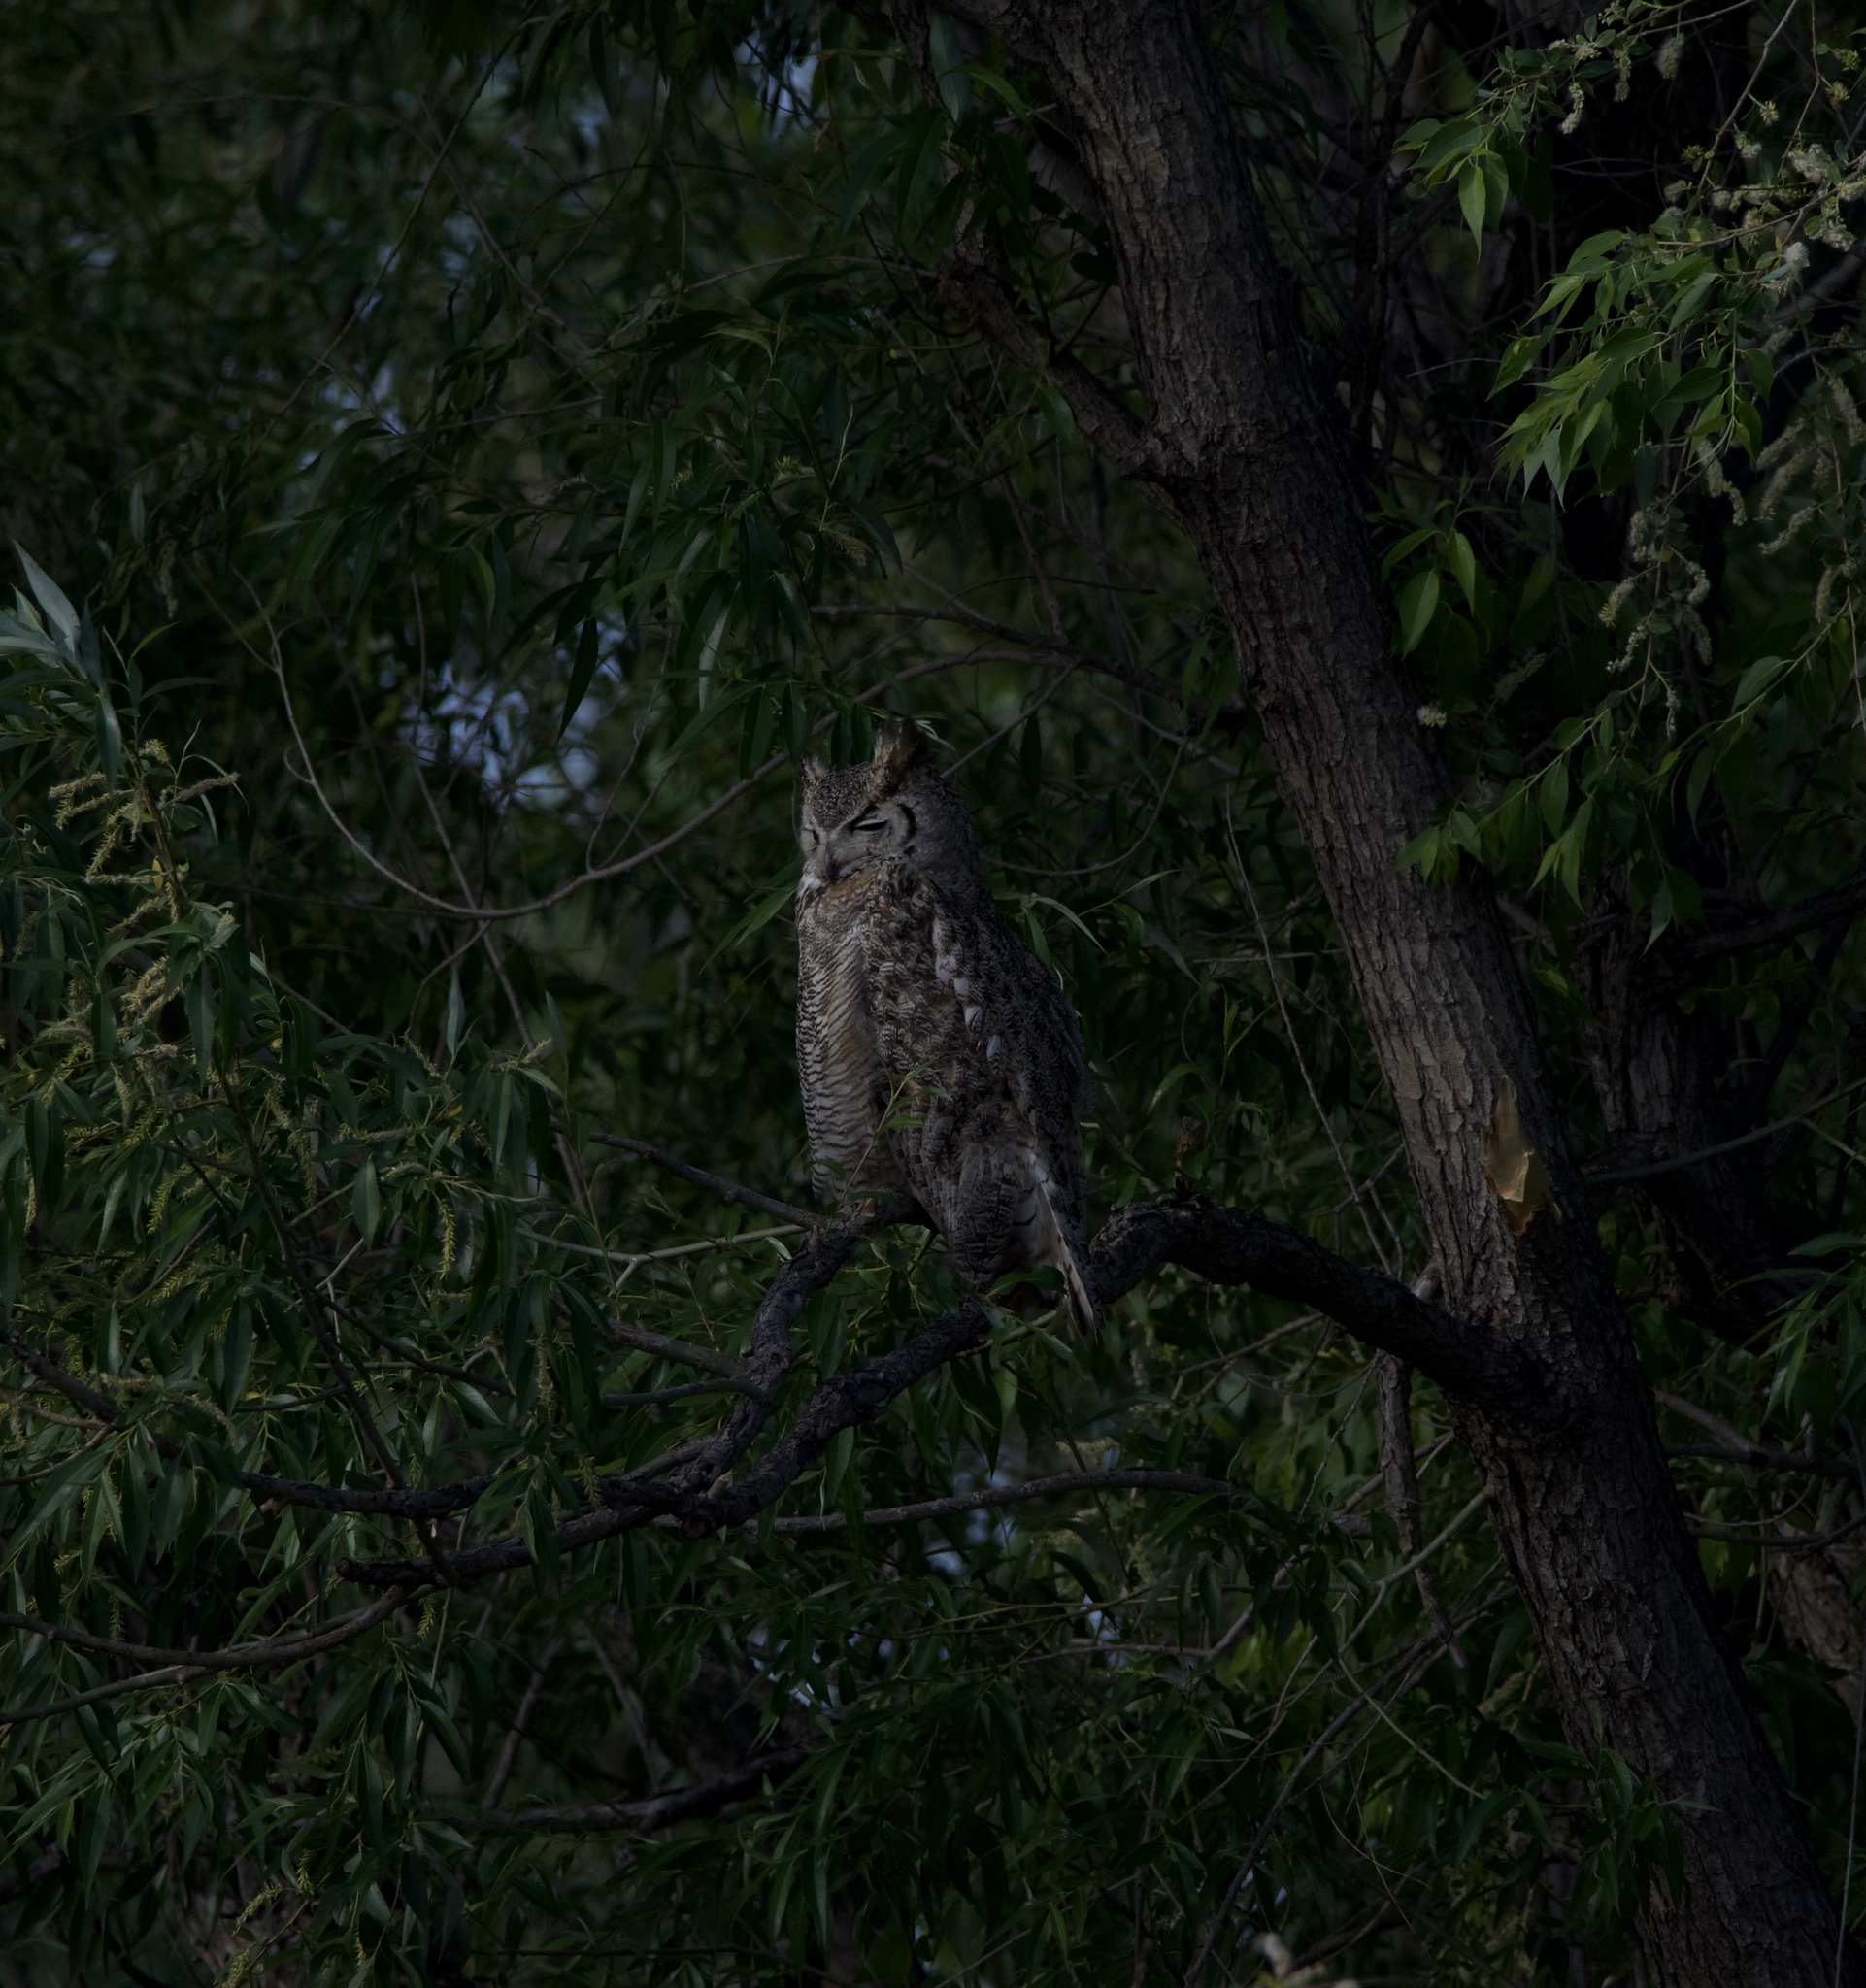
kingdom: Animalia
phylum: Chordata
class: Aves
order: Strigiformes
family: Strigidae
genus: Bubo
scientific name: Bubo virginianus
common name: Great horned owl
